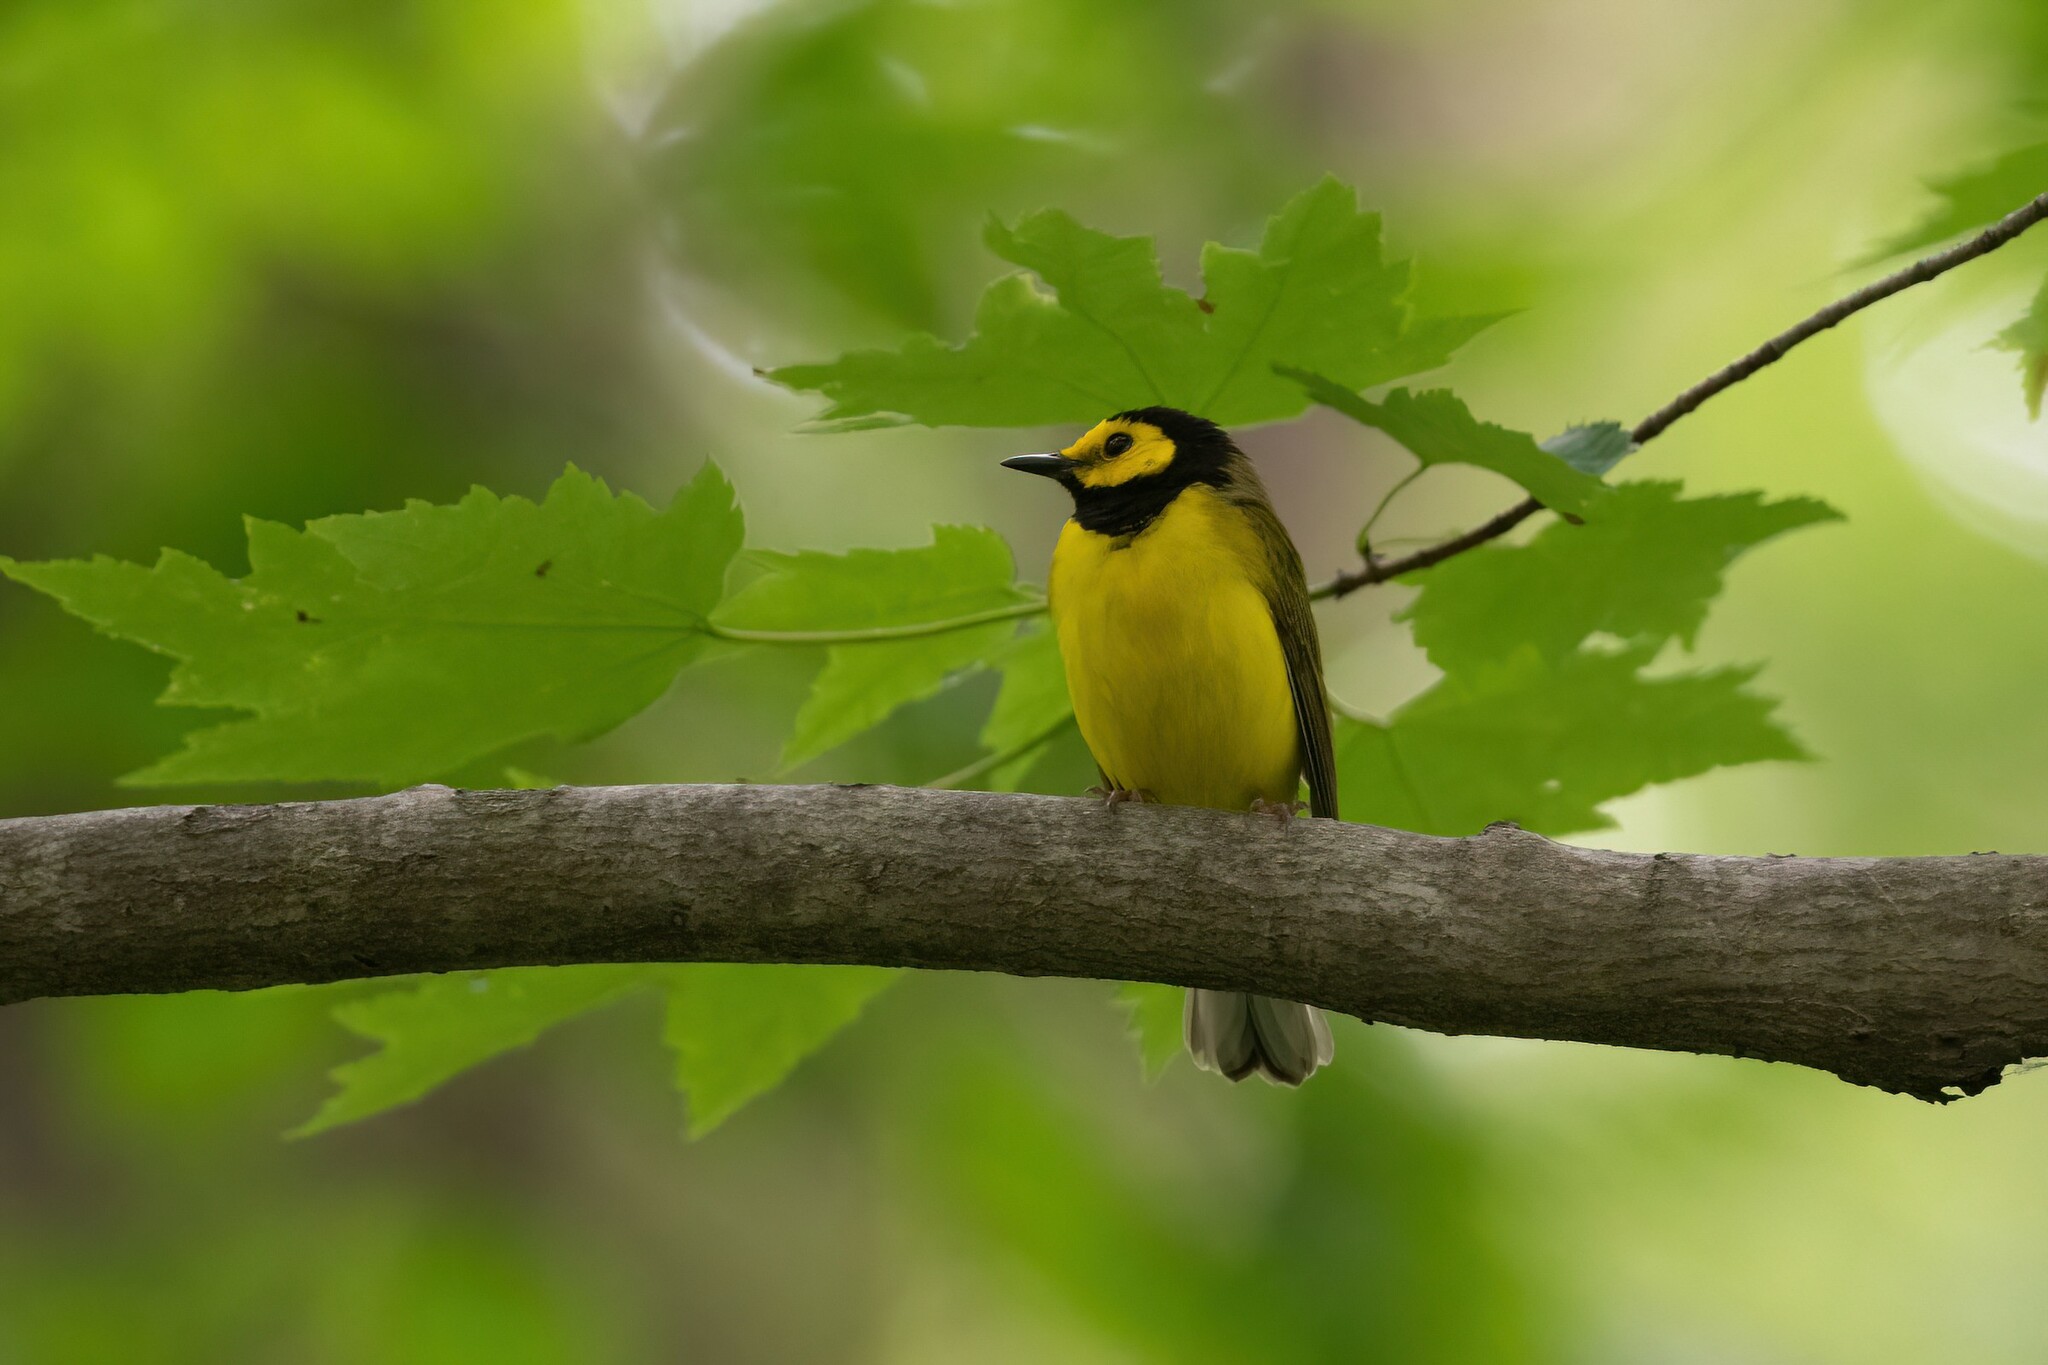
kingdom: Animalia
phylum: Chordata
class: Aves
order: Passeriformes
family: Parulidae
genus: Setophaga
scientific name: Setophaga citrina
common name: Hooded warbler
